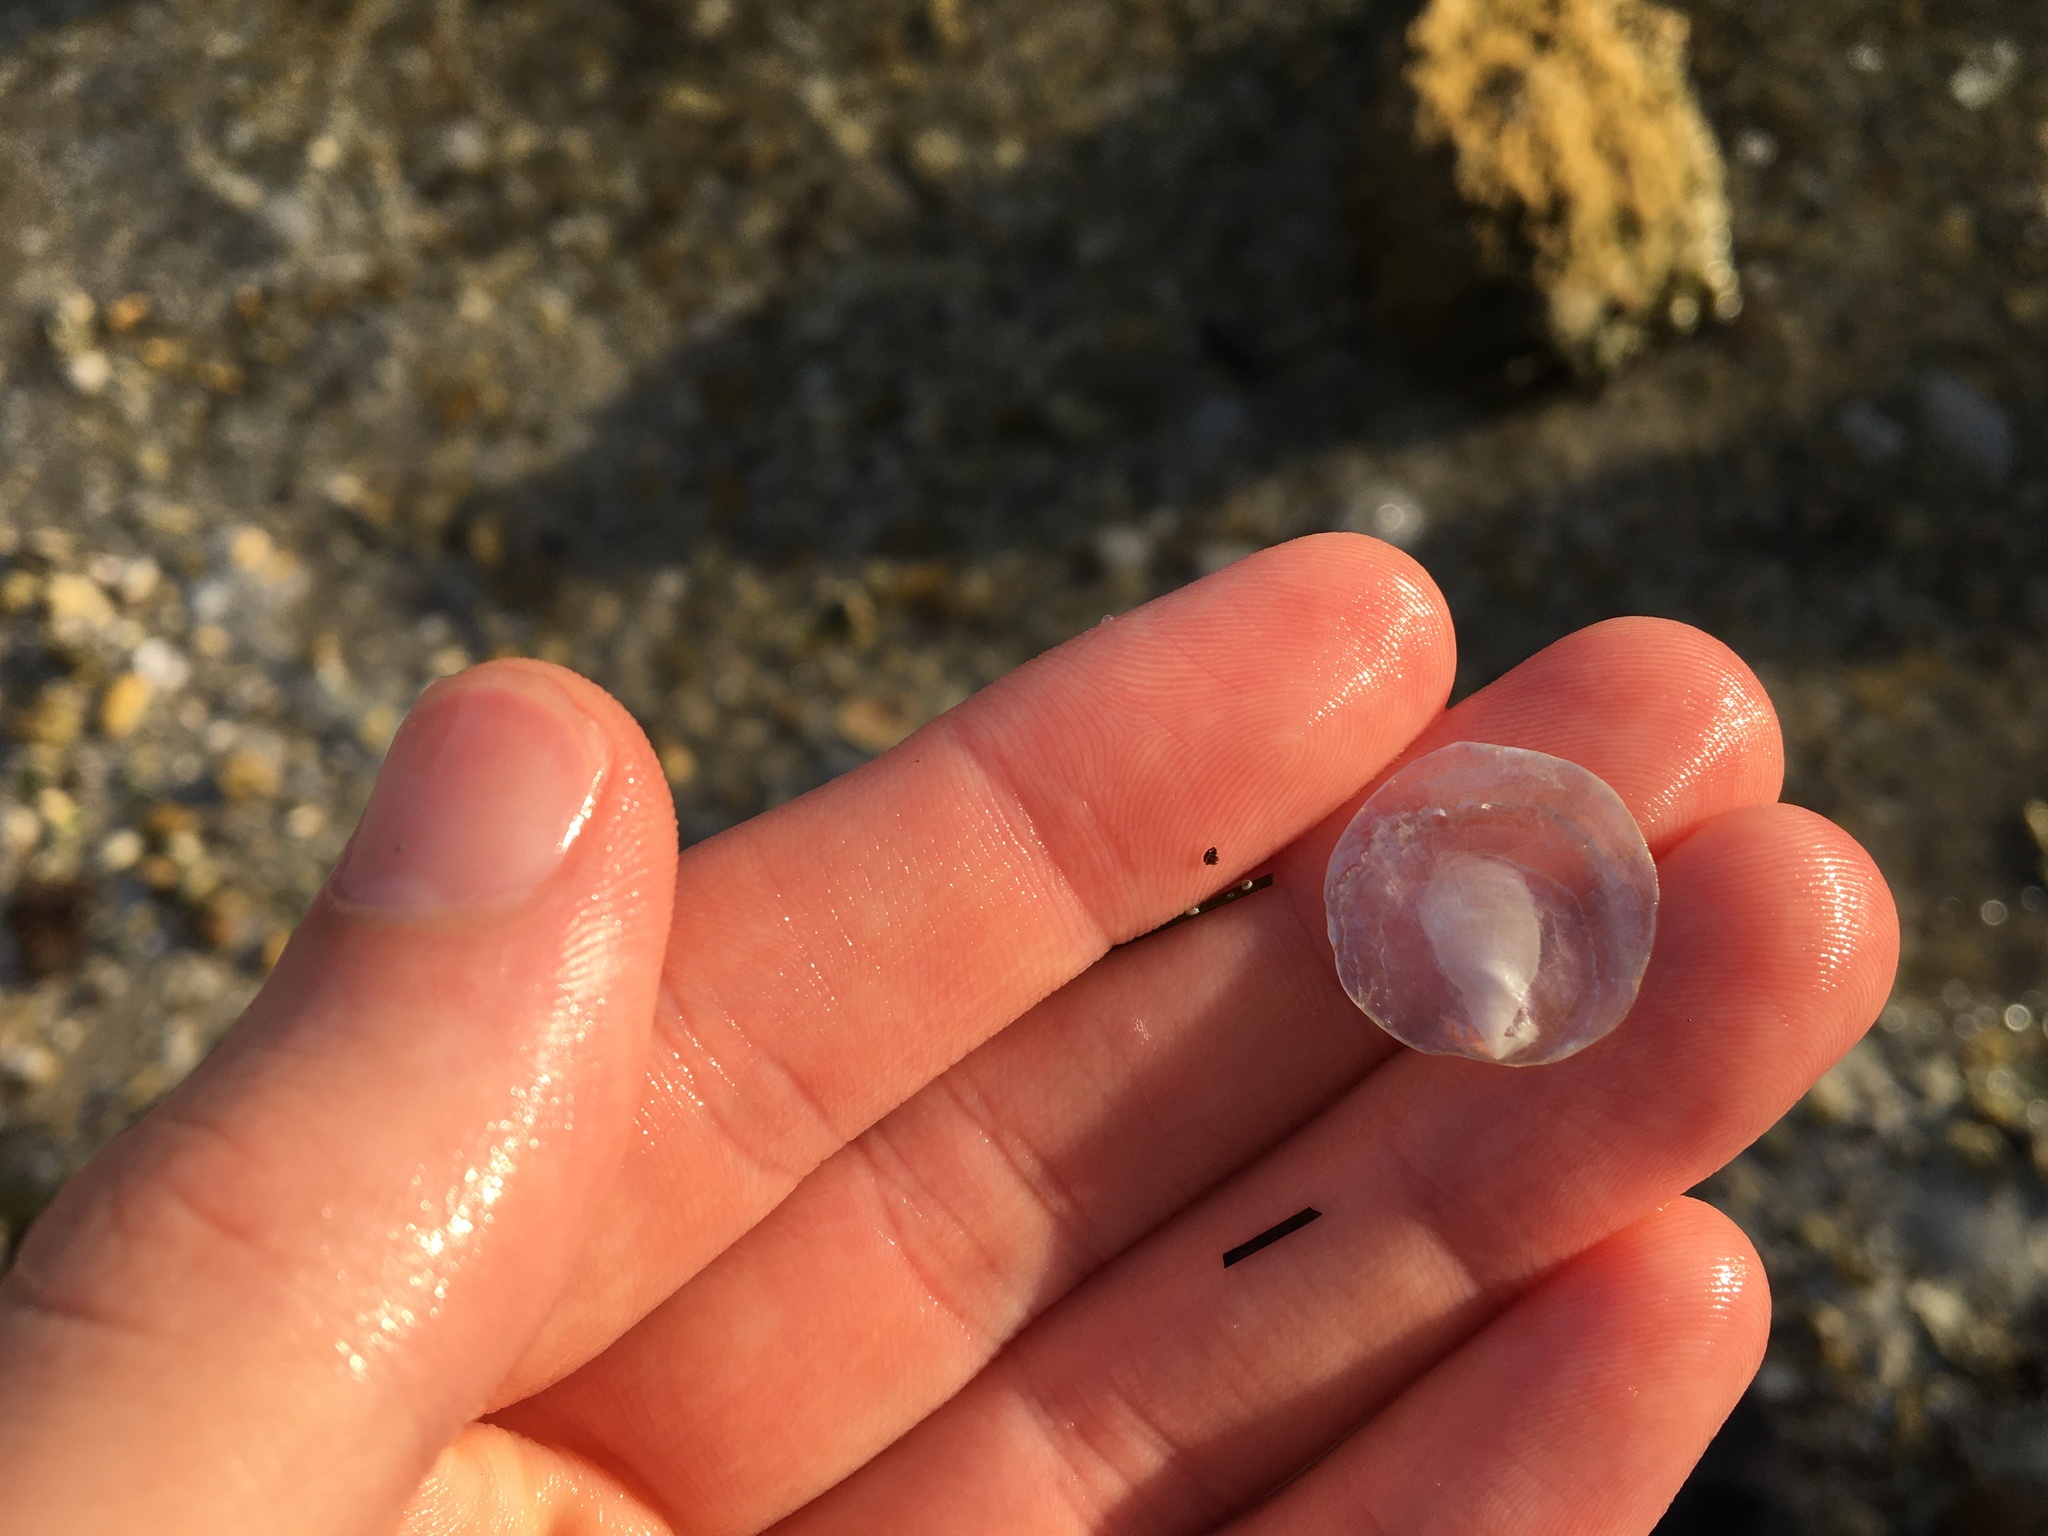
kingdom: Animalia
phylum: Mollusca
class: Bivalvia
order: Pectinida
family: Anomiidae
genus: Anomia
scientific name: Anomia simplex
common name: Common jingle shell
